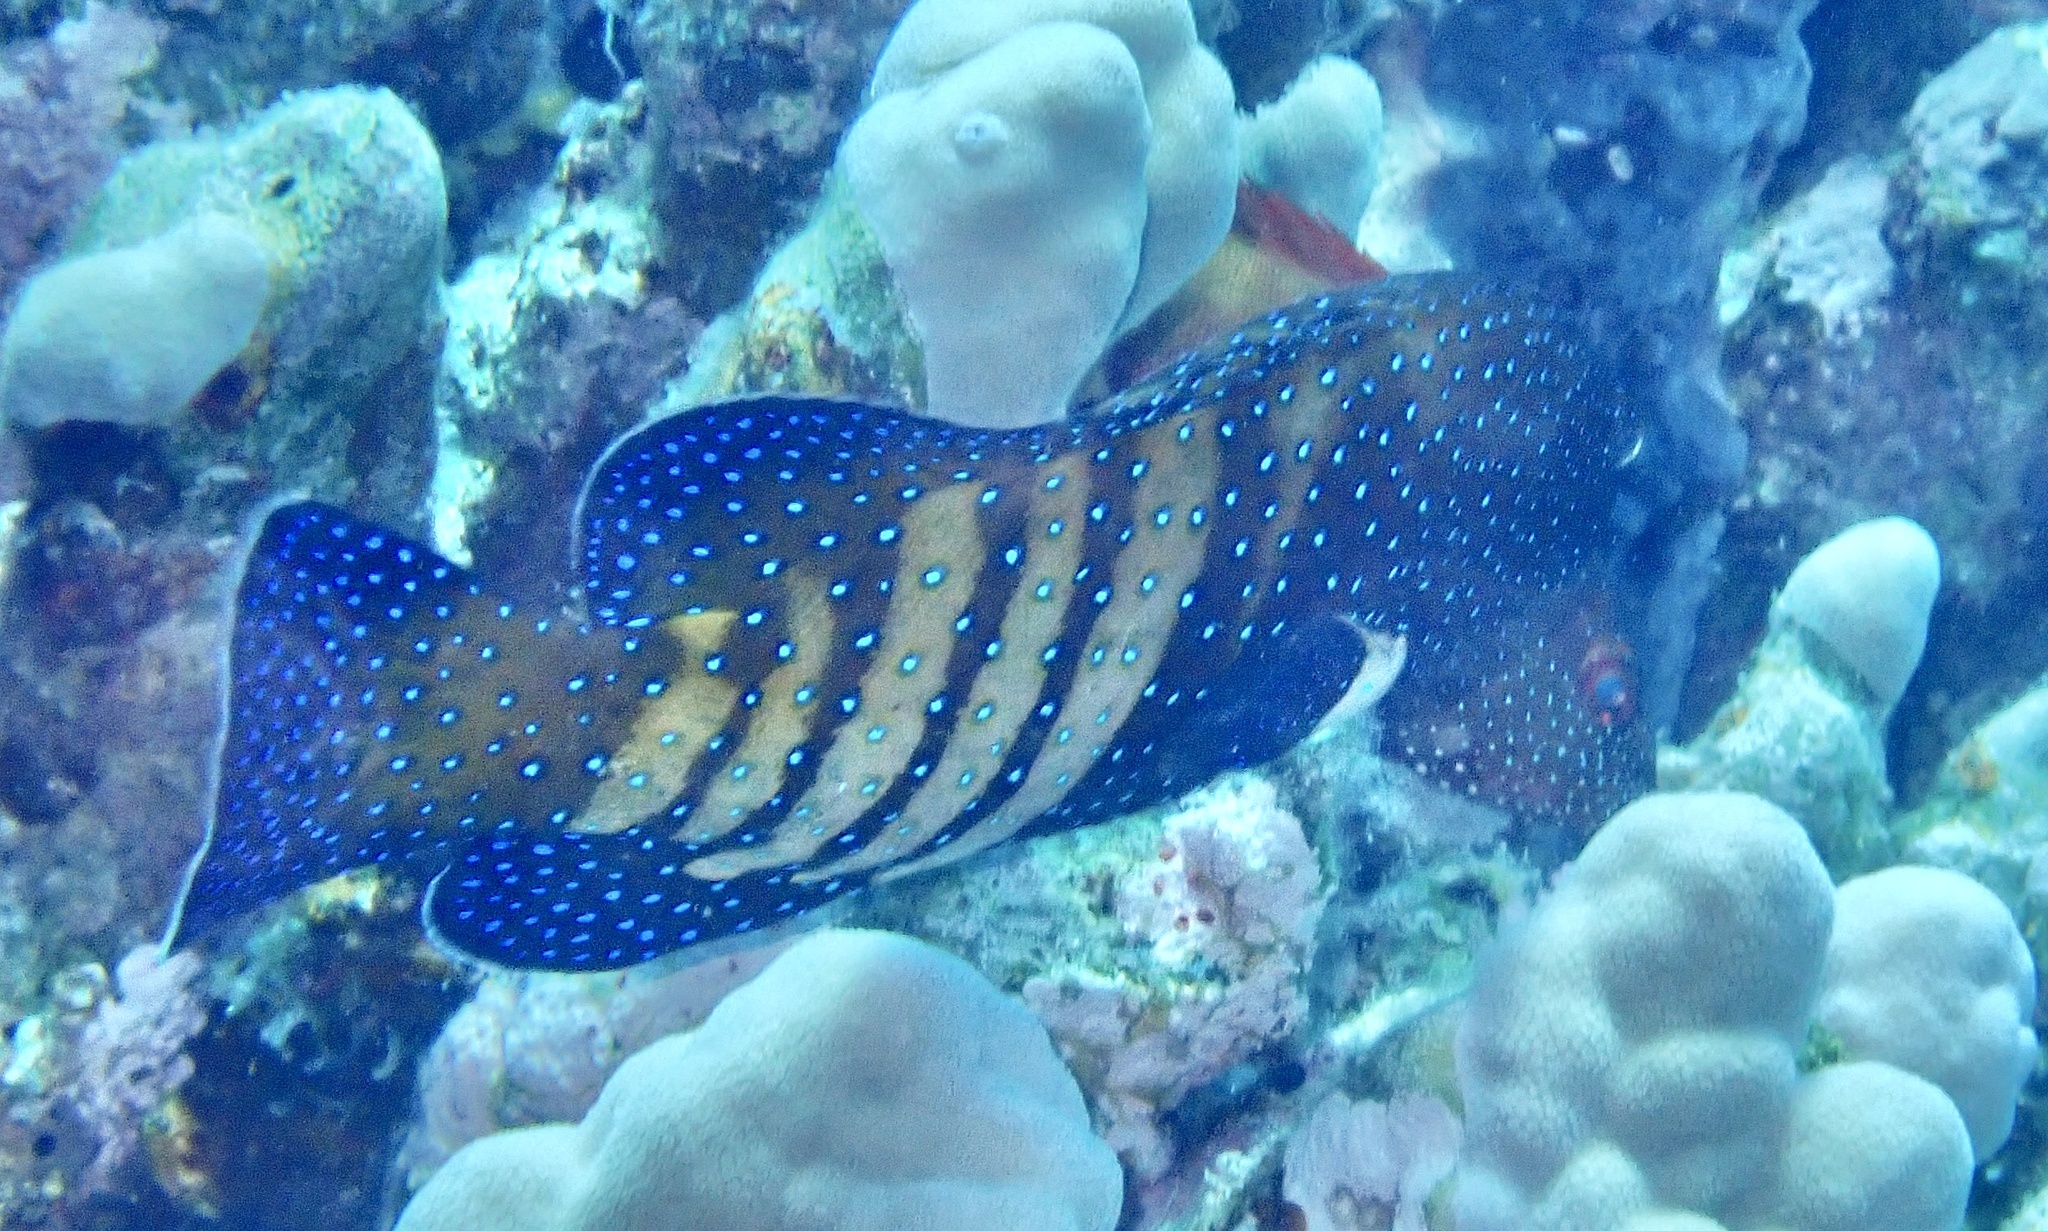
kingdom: Animalia
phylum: Chordata
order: Perciformes
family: Serranidae
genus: Cephalopholis
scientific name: Cephalopholis argus
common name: Peacock grouper
